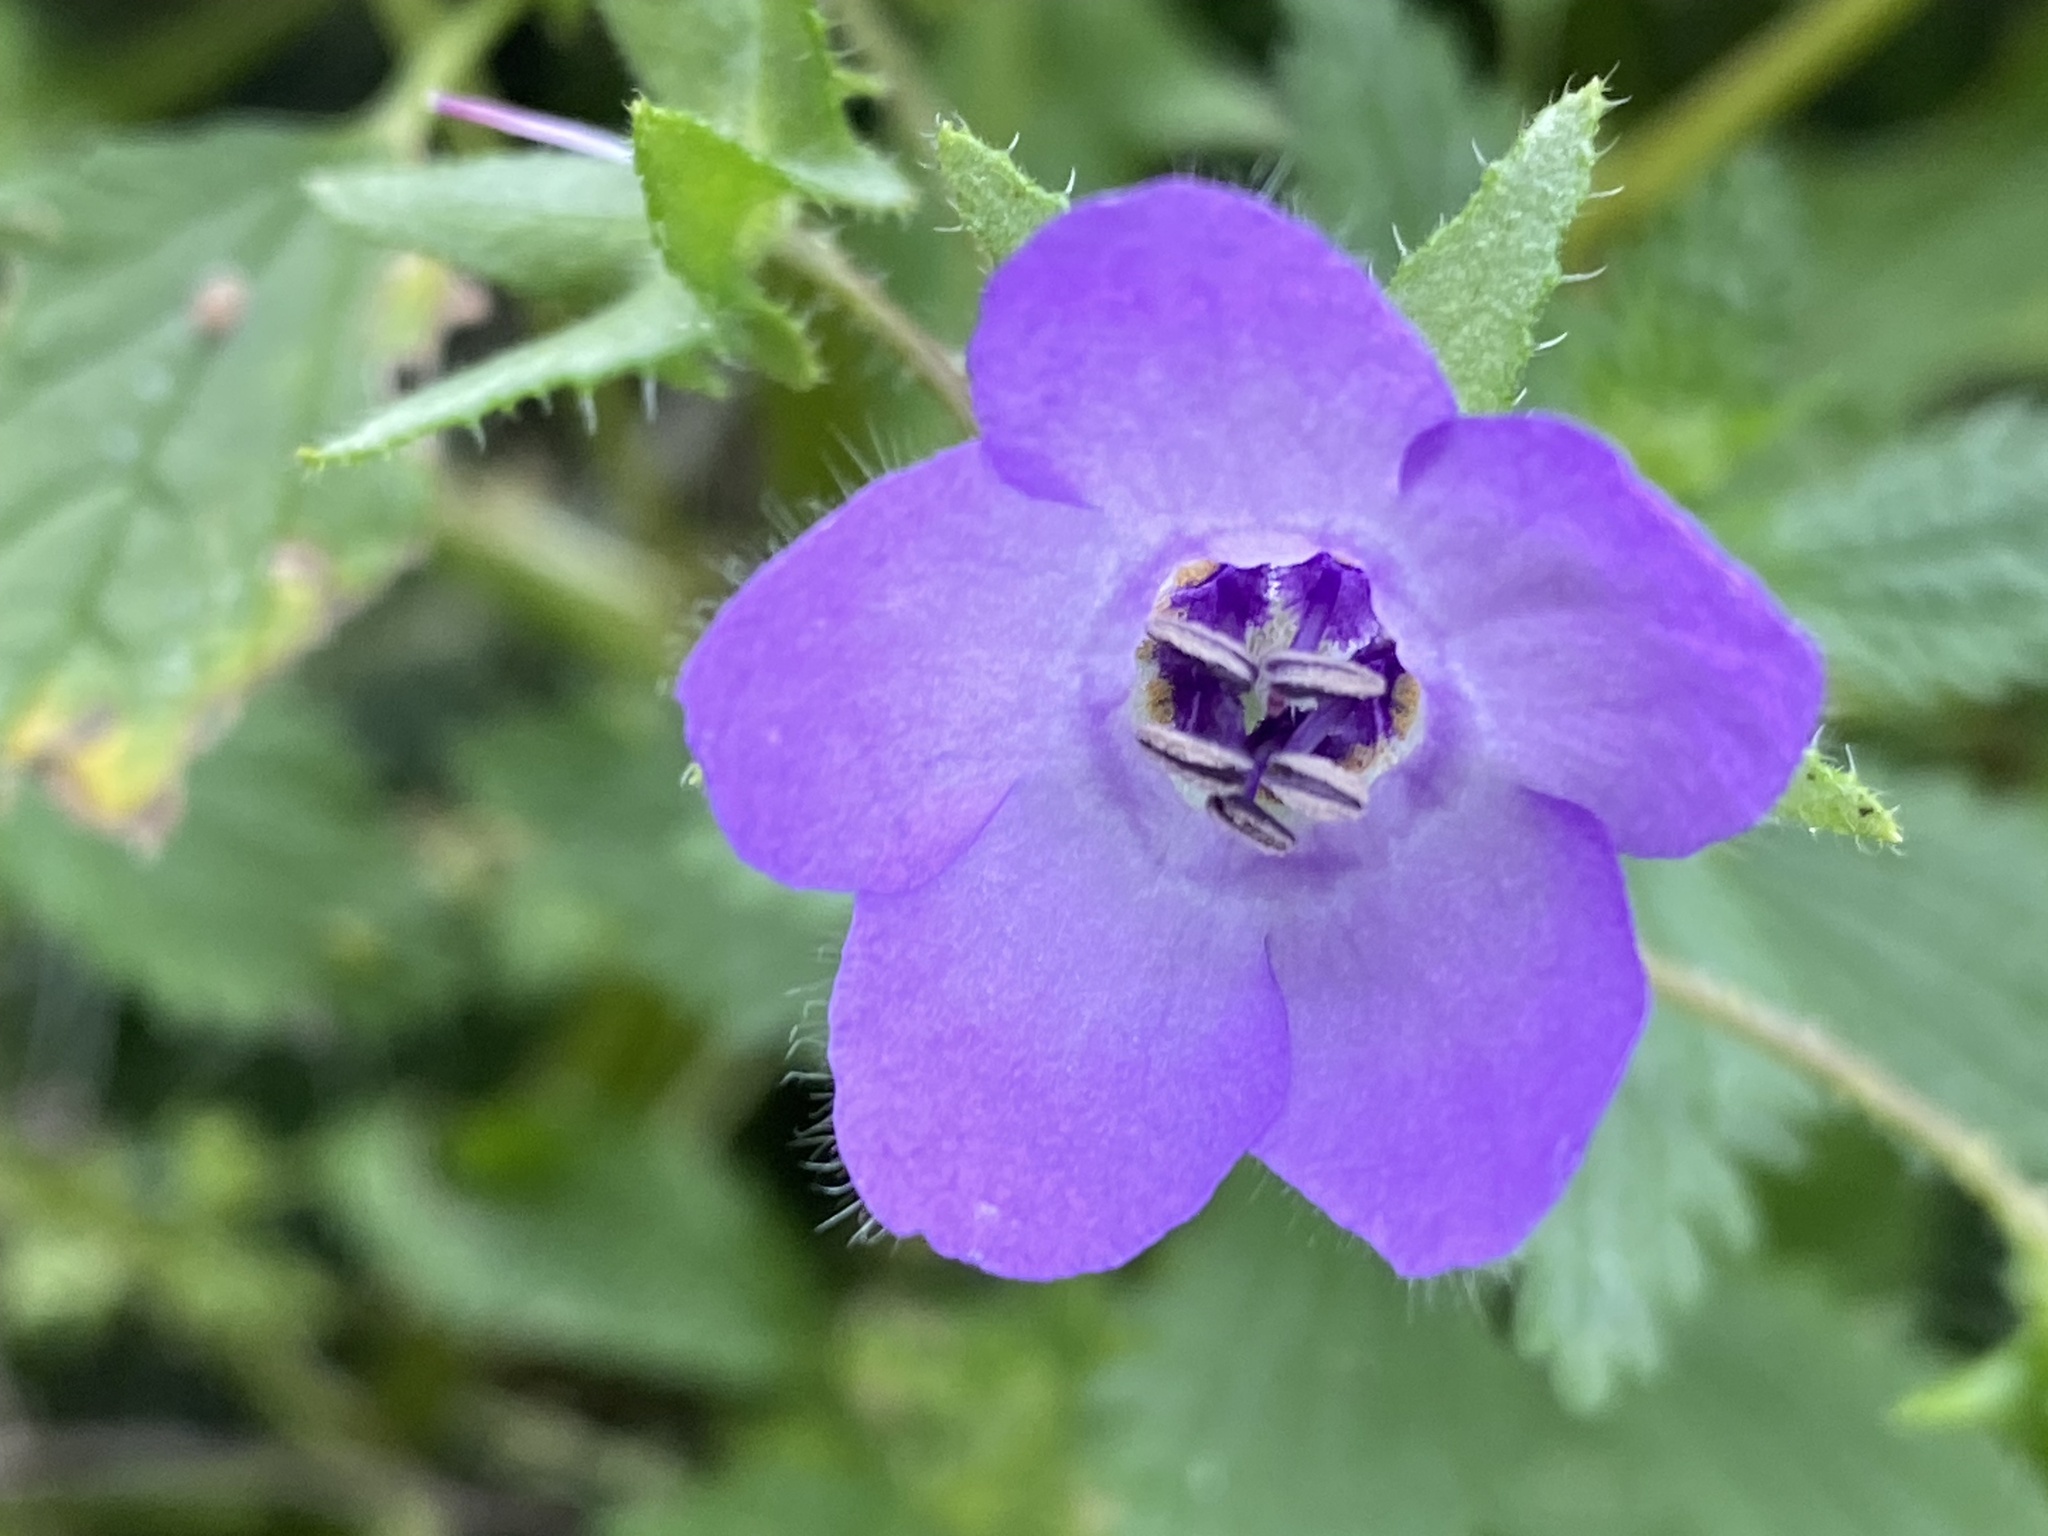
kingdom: Plantae
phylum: Tracheophyta
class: Magnoliopsida
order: Boraginales
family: Hydrophyllaceae
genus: Pholistoma
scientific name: Pholistoma auritum
